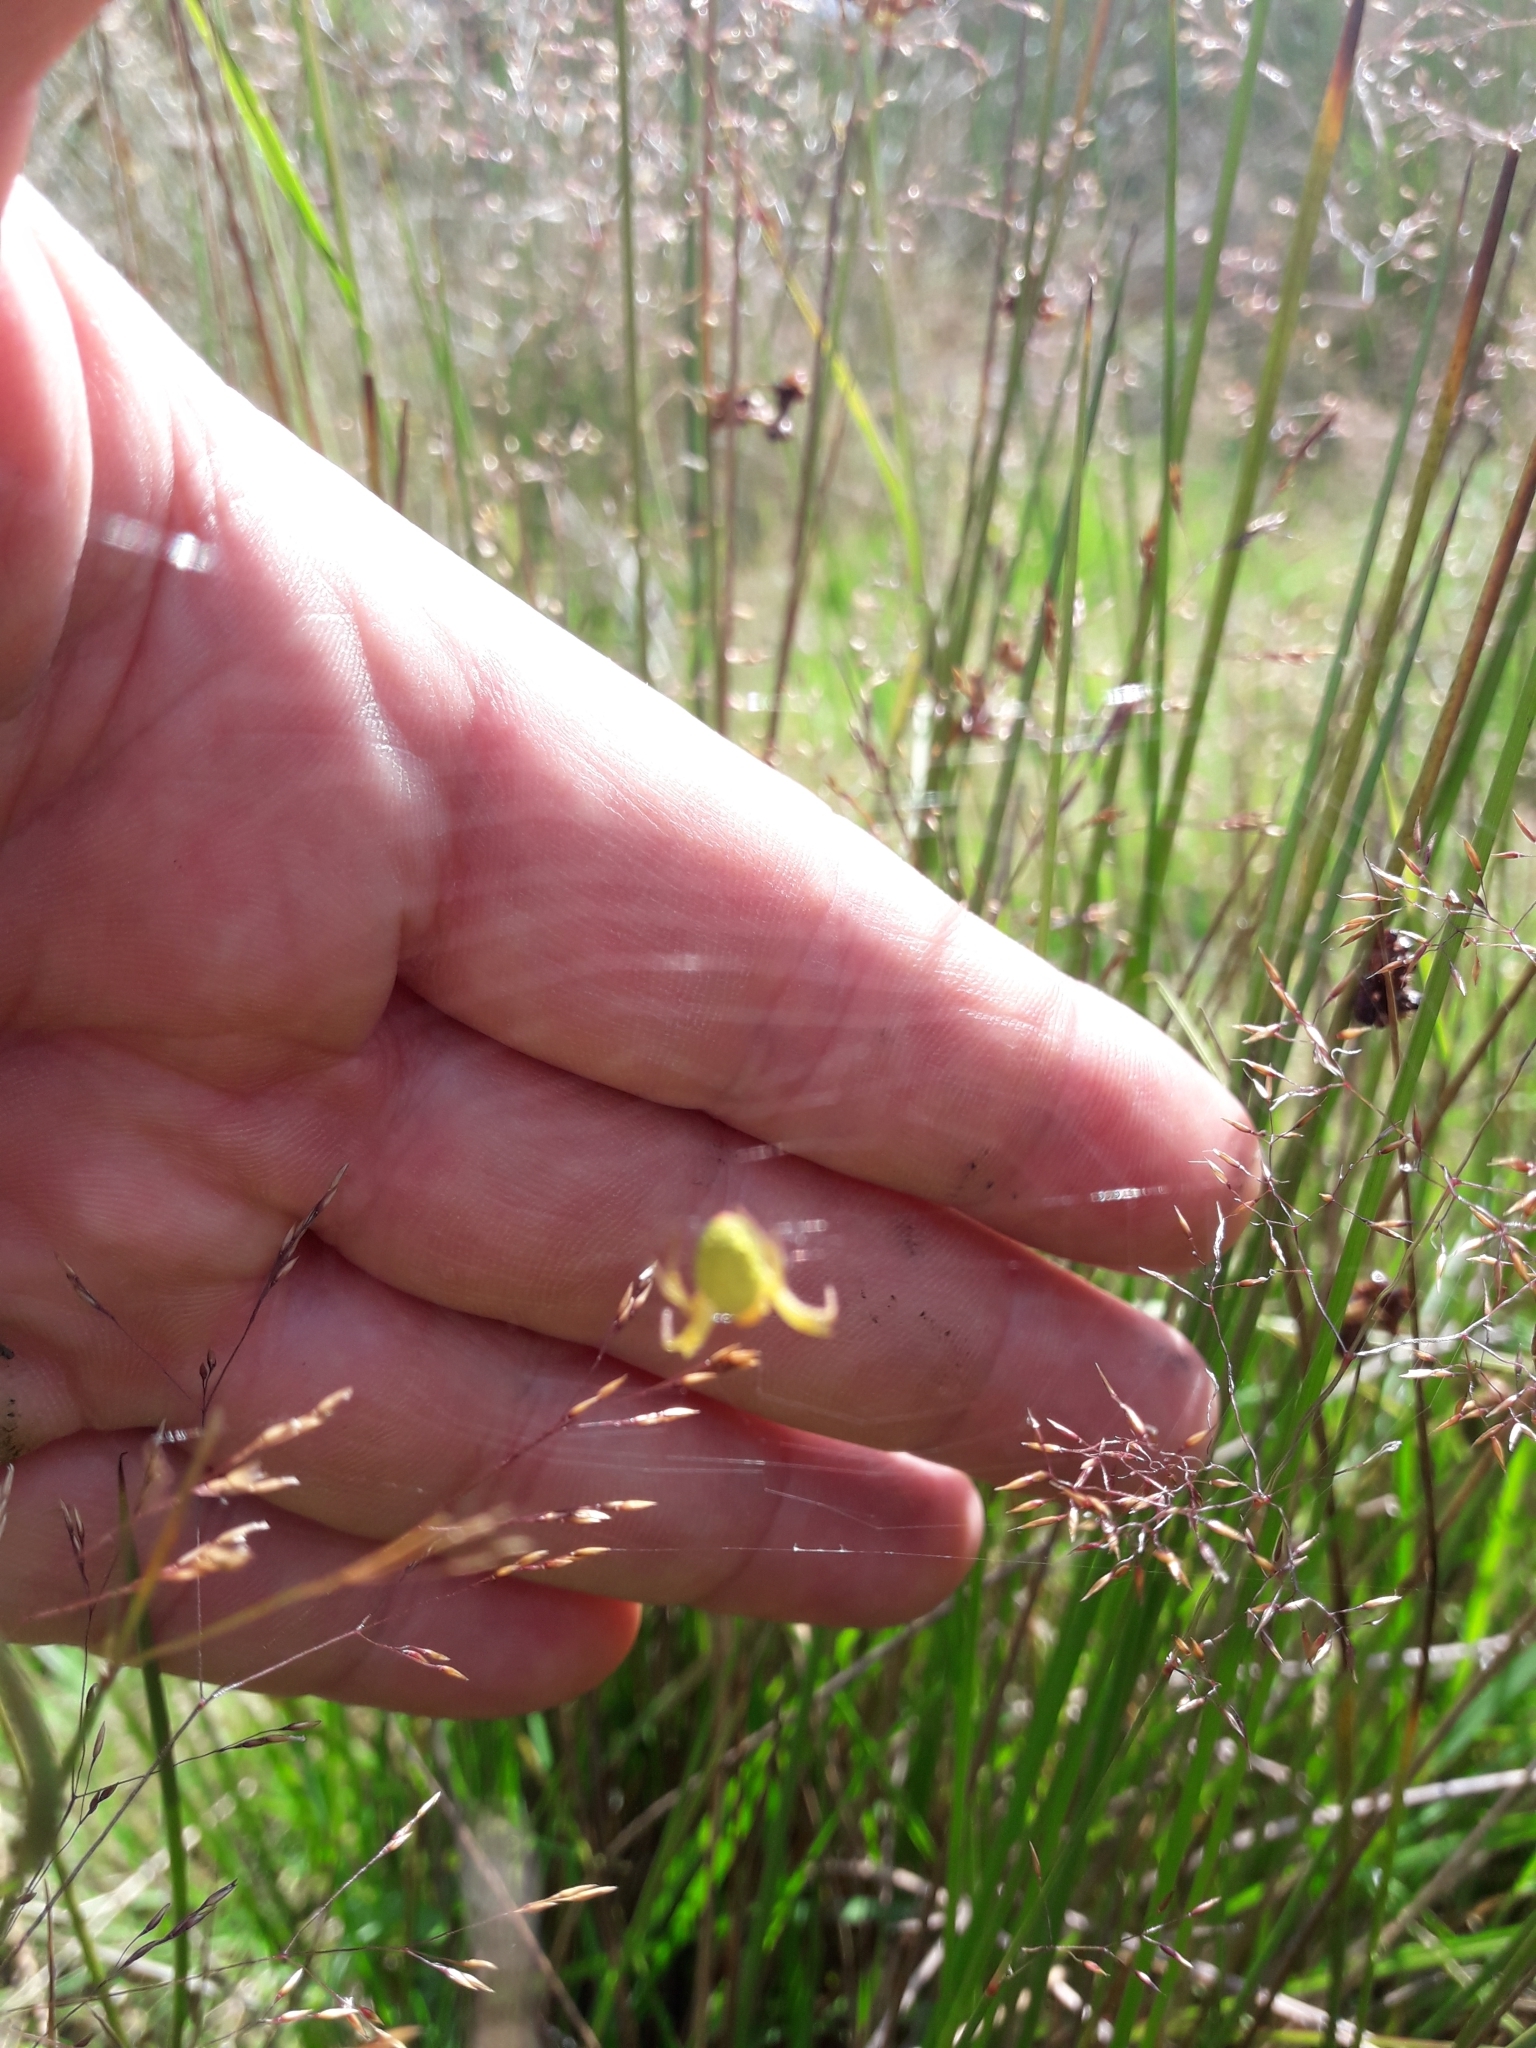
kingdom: Animalia
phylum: Arthropoda
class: Arachnida
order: Araneae
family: Araneidae
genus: Araniella
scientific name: Araniella
